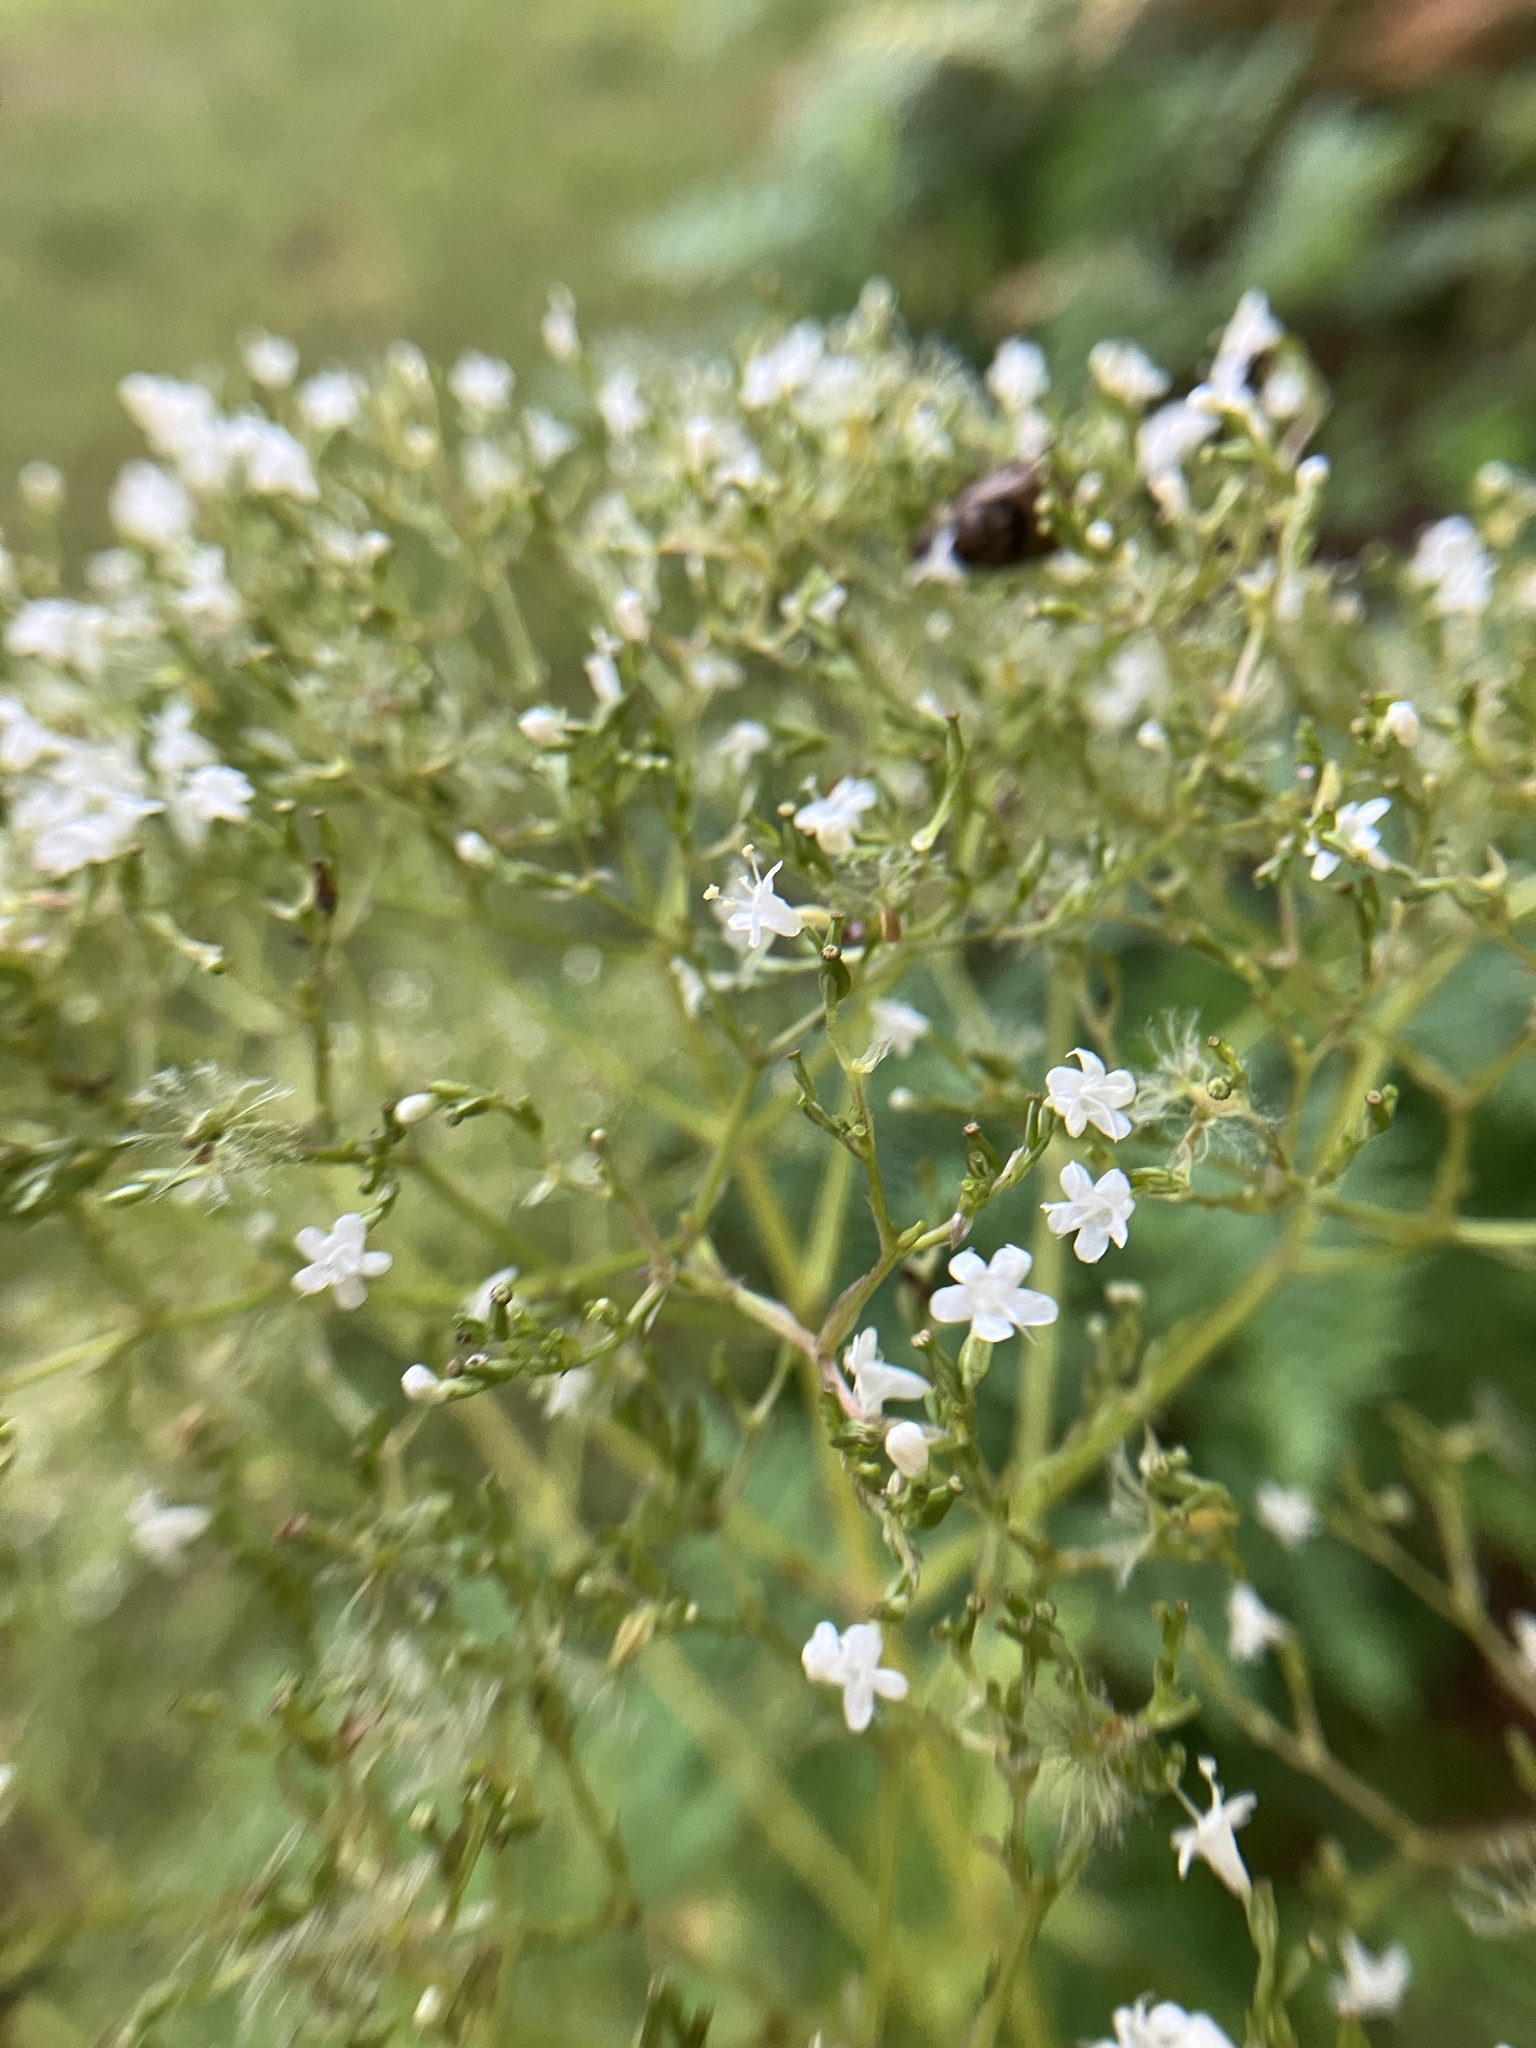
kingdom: Plantae
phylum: Tracheophyta
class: Magnoliopsida
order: Dipsacales
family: Caprifoliaceae
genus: Valeriana
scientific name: Valeriana officinalis
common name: Common valerian
